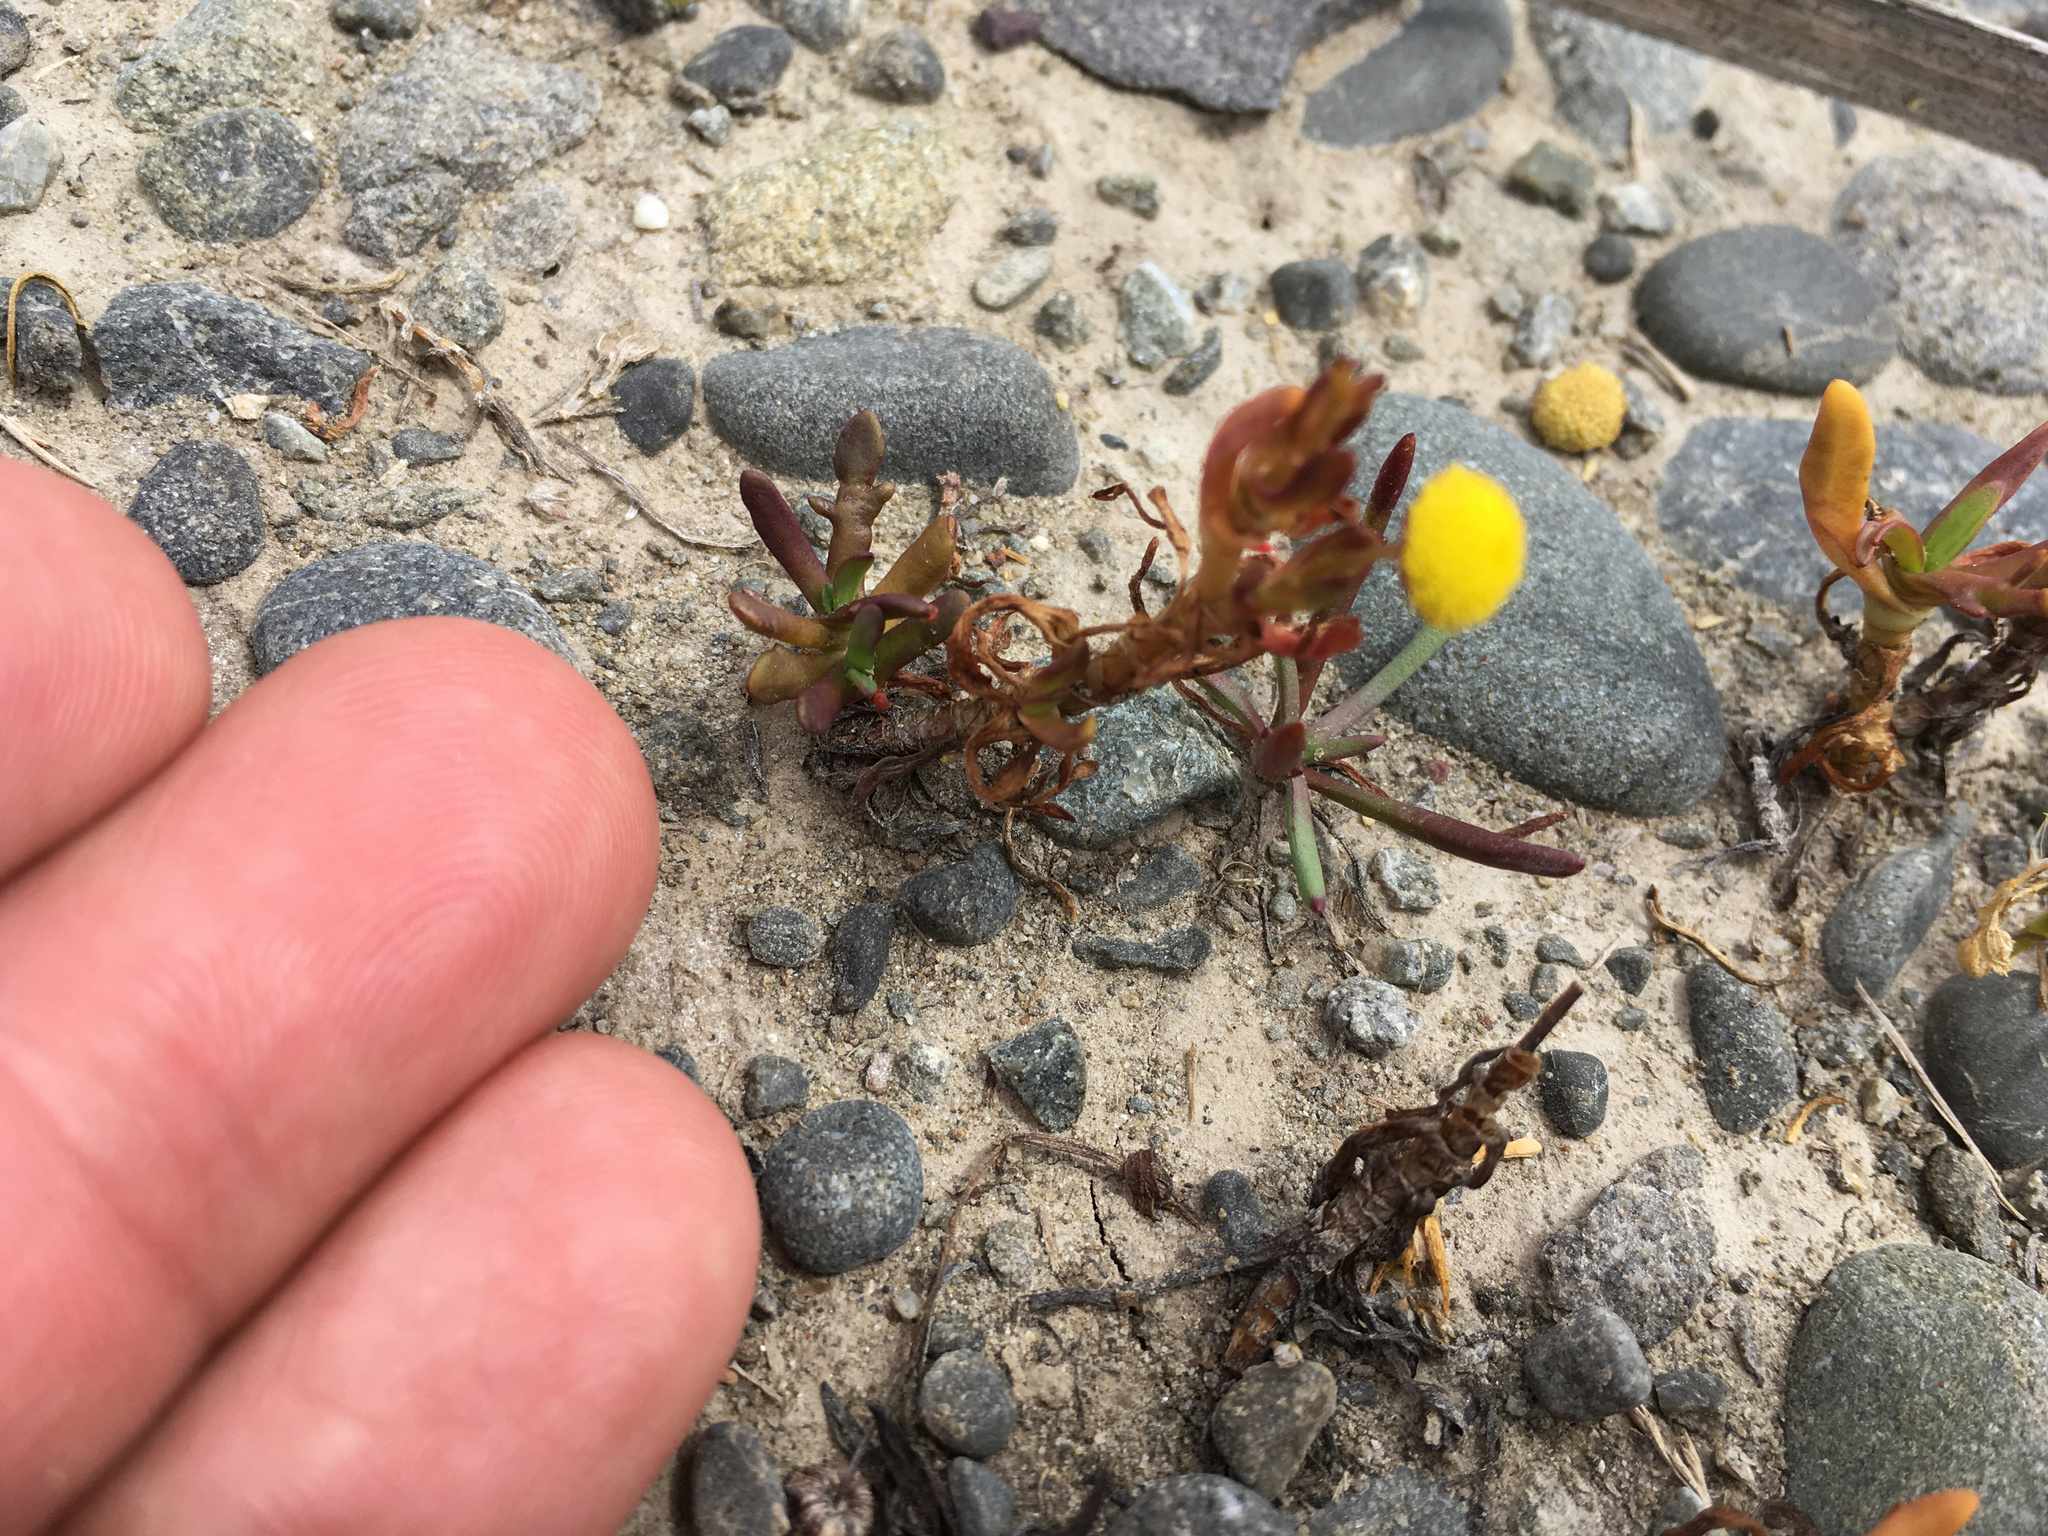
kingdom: Plantae
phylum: Tracheophyta
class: Magnoliopsida
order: Asterales
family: Asteraceae
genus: Cotula
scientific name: Cotula coronopifolia
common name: Buttonweed
